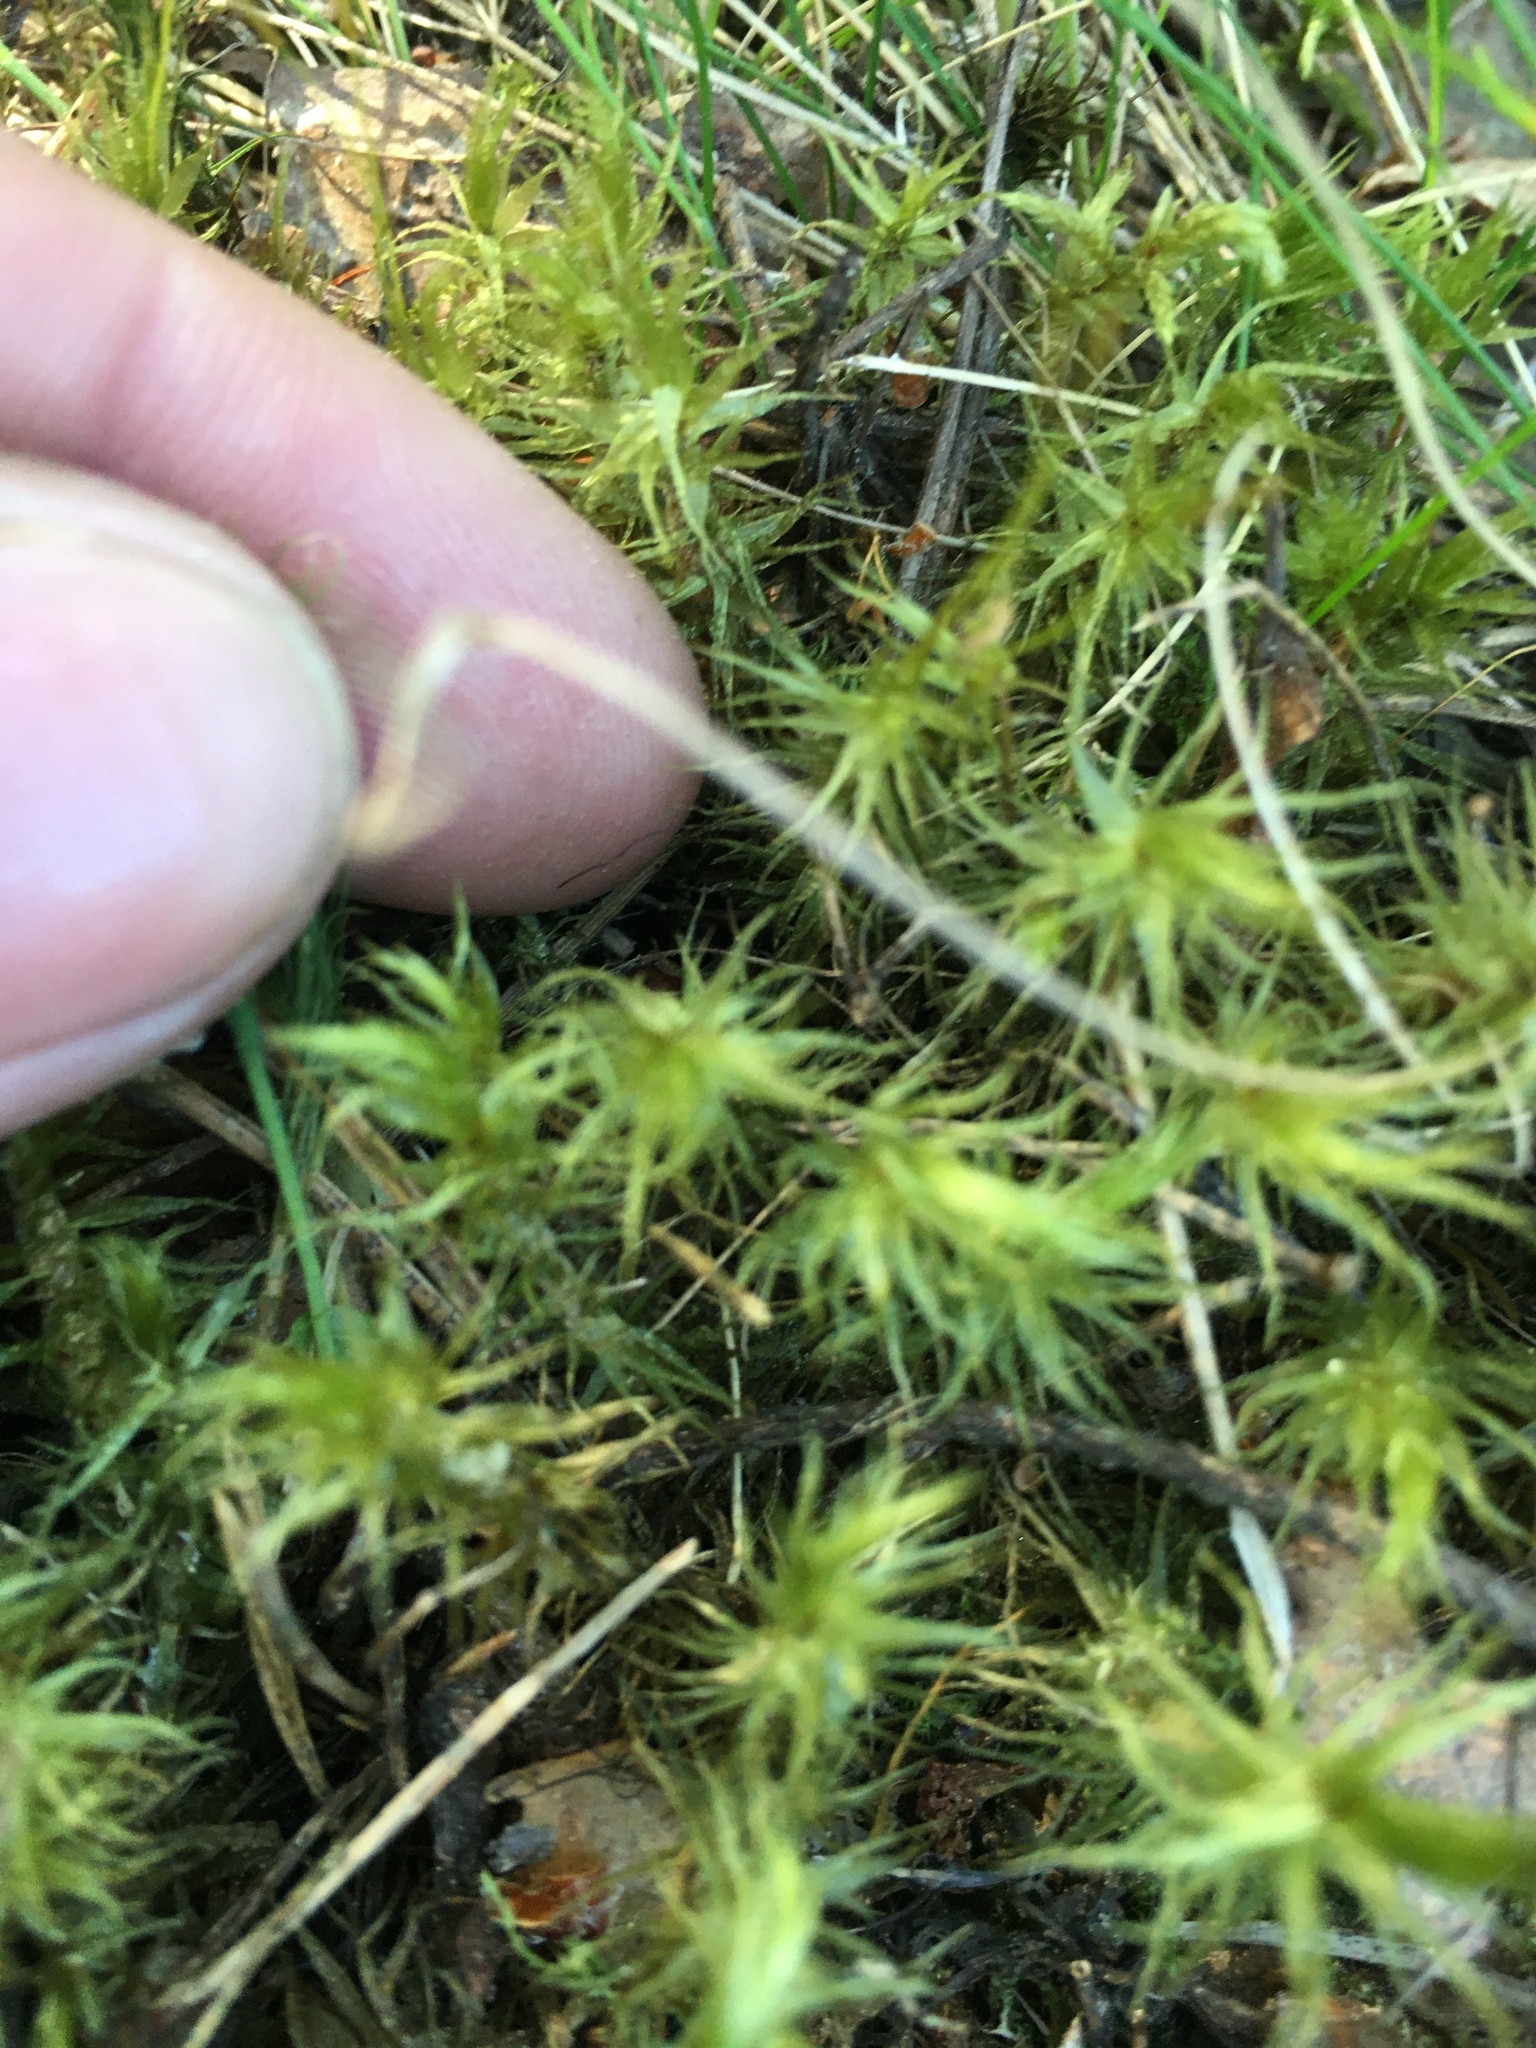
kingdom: Plantae
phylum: Bryophyta
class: Bryopsida
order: Dicranales
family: Dicranaceae
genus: Dicranum
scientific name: Dicranum polysetum
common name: Rugose fork-moss
